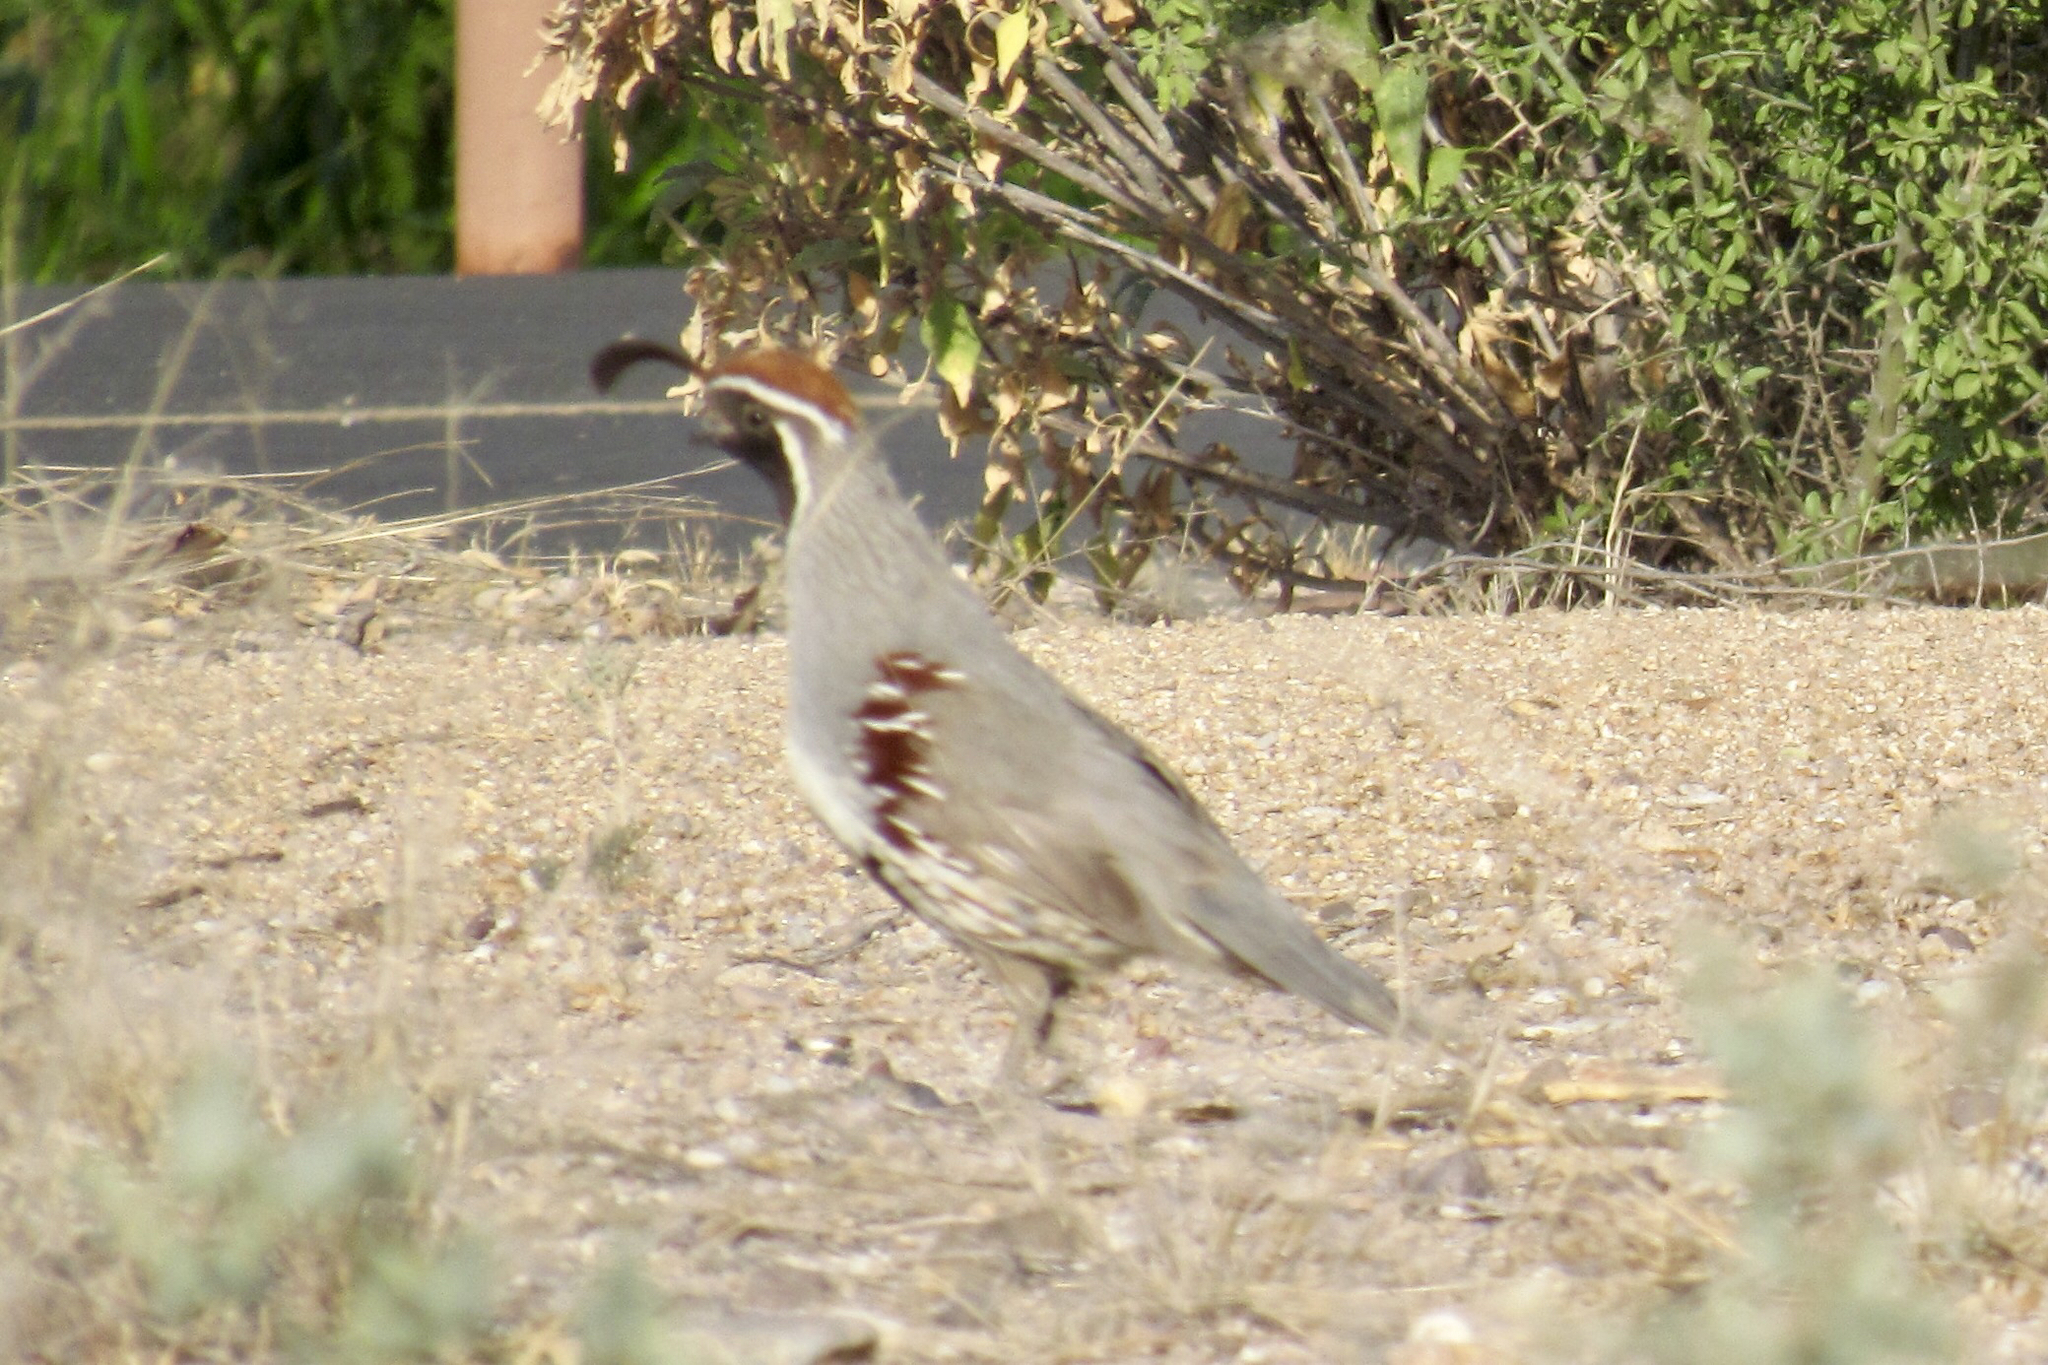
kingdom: Animalia
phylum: Chordata
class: Aves
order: Galliformes
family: Odontophoridae
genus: Callipepla
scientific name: Callipepla gambelii
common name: Gambel's quail
